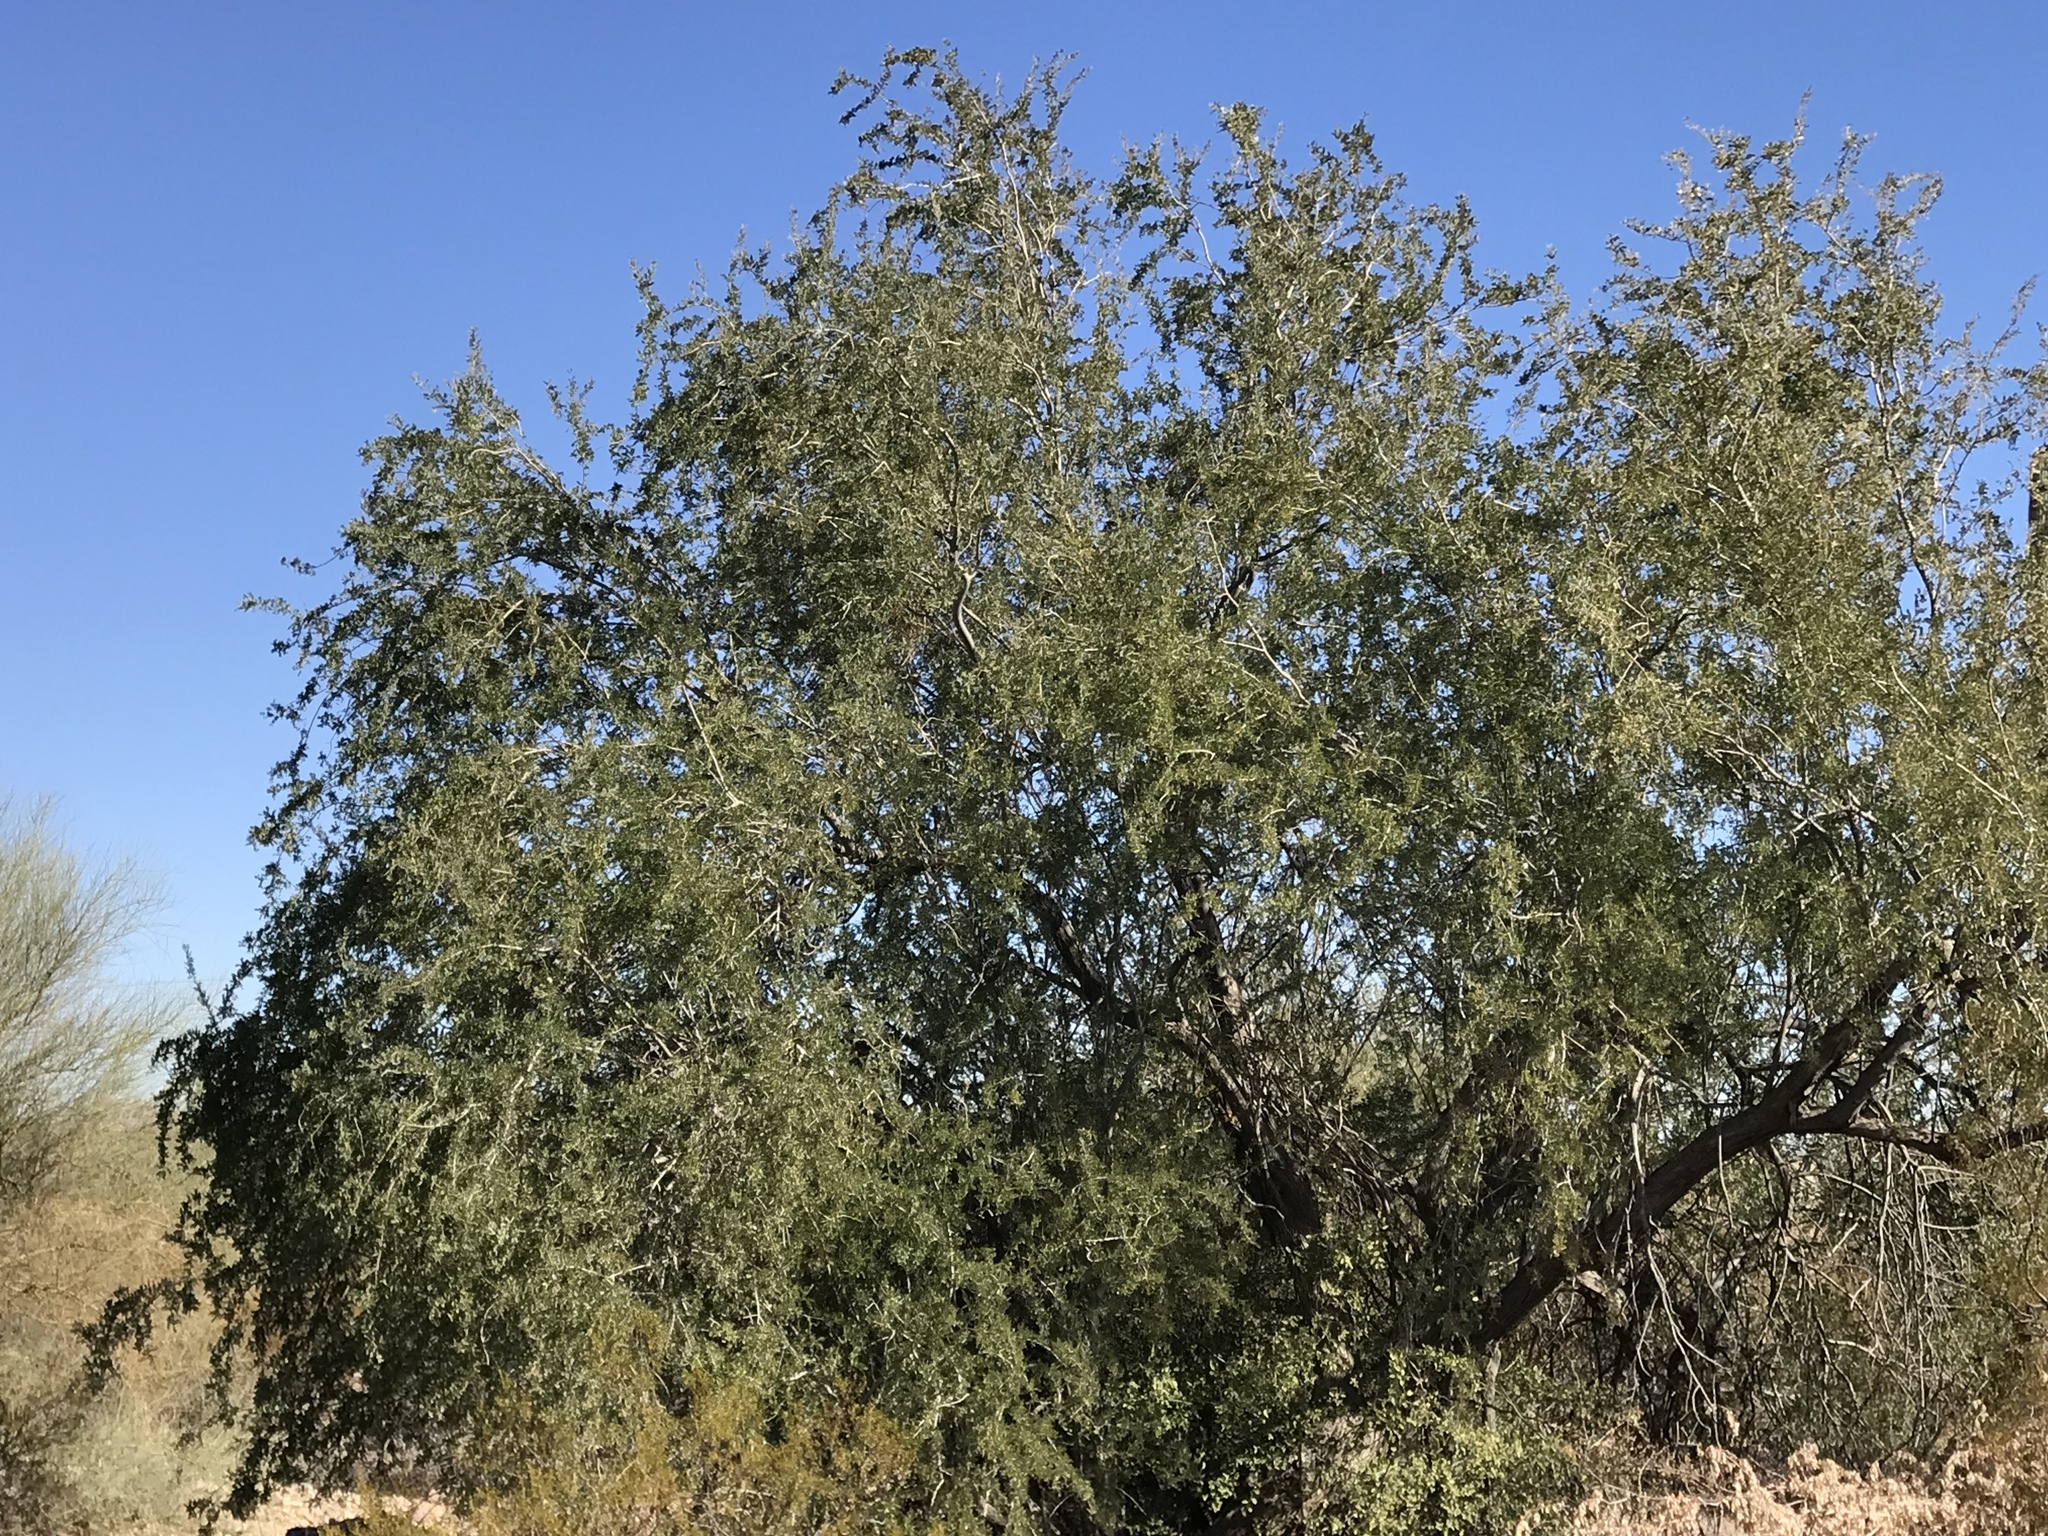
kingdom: Plantae
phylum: Tracheophyta
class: Magnoliopsida
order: Fabales
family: Fabaceae
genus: Olneya
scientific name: Olneya tesota
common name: Desert ironwood
